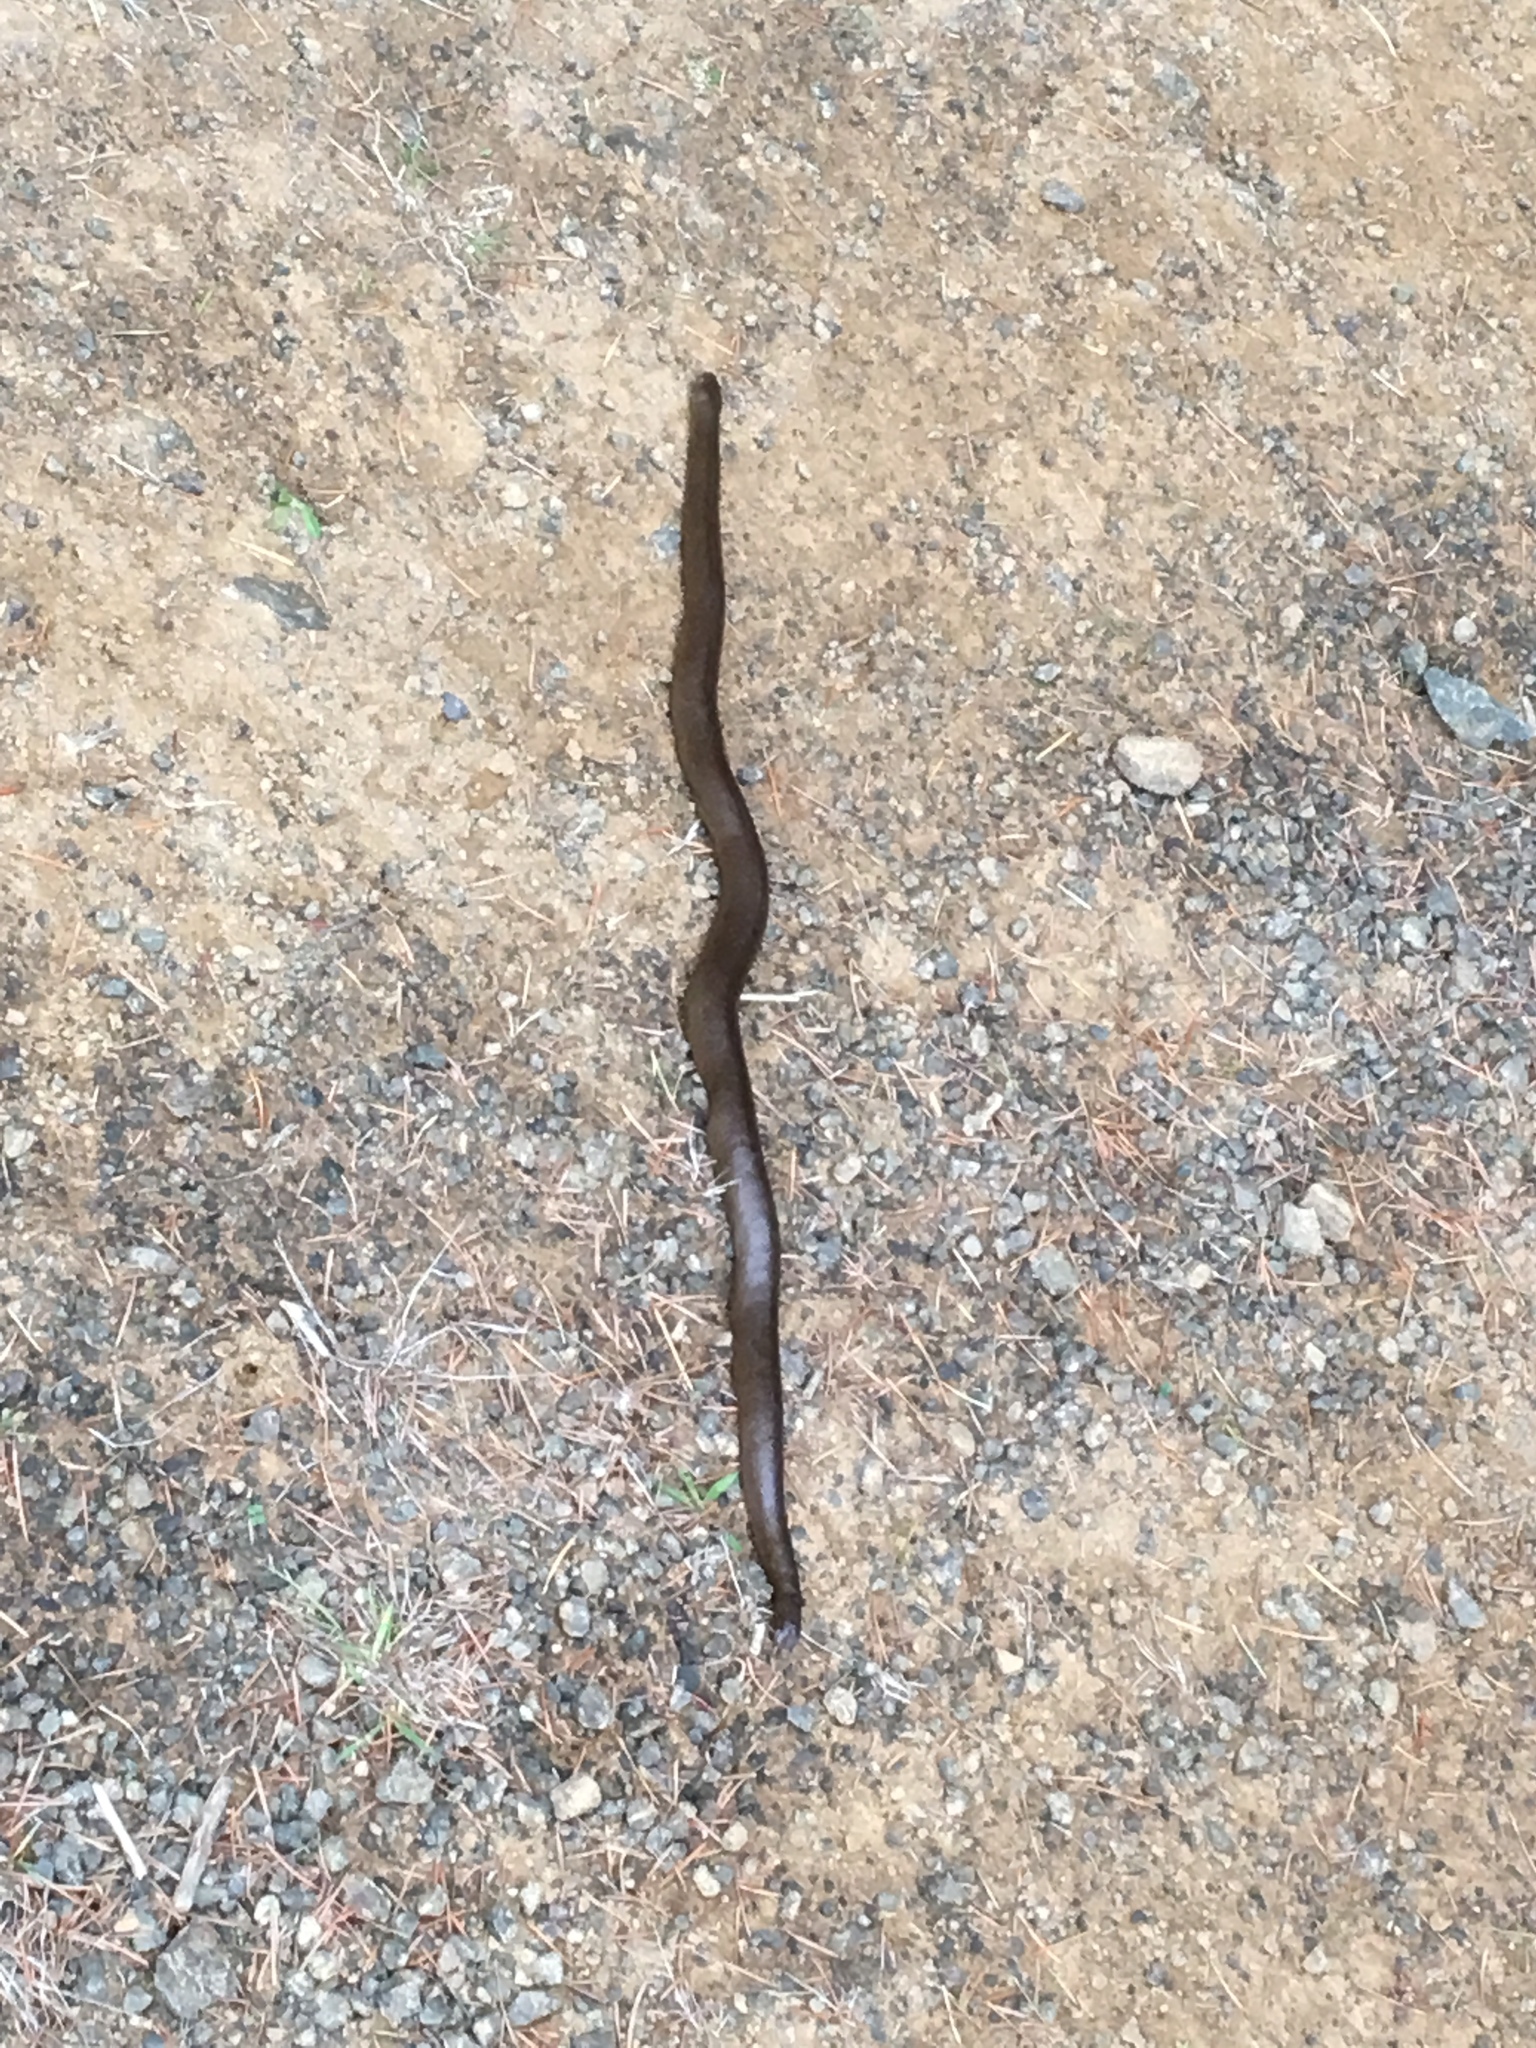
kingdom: Animalia
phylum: Chordata
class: Squamata
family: Boidae
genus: Charina
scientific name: Charina bottae
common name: Northern rubber boa
